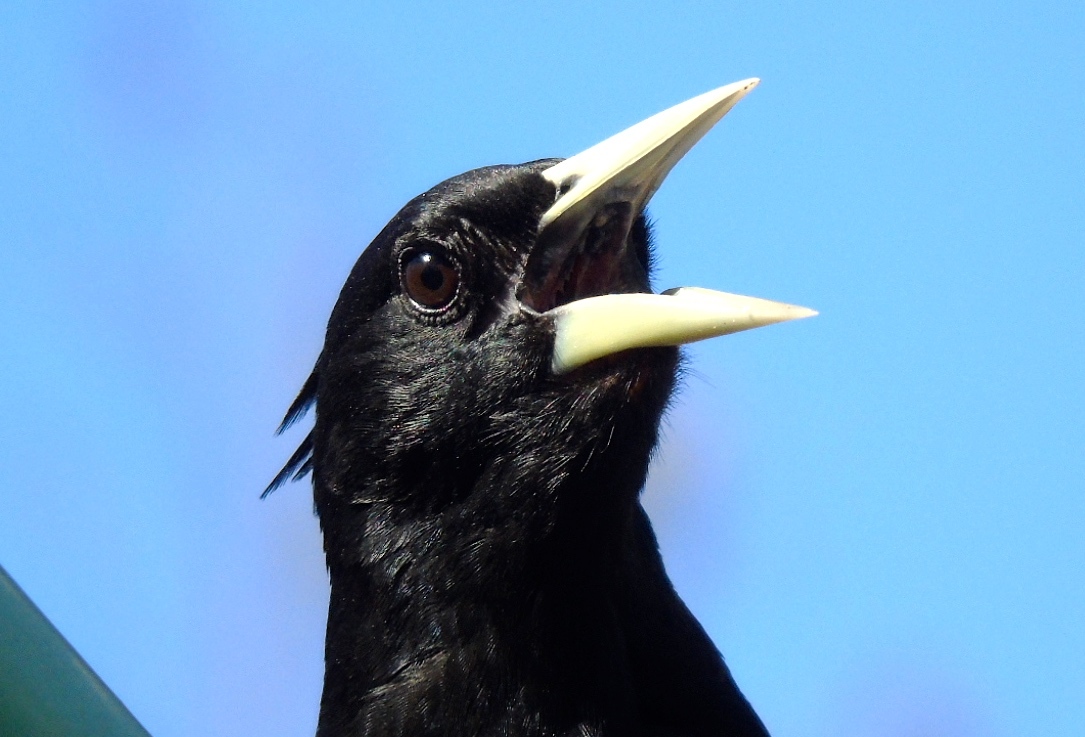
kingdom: Animalia
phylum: Chordata
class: Aves
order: Passeriformes
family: Icteridae
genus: Cacicus
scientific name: Cacicus melanicterus
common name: Yellow-winged cacique
